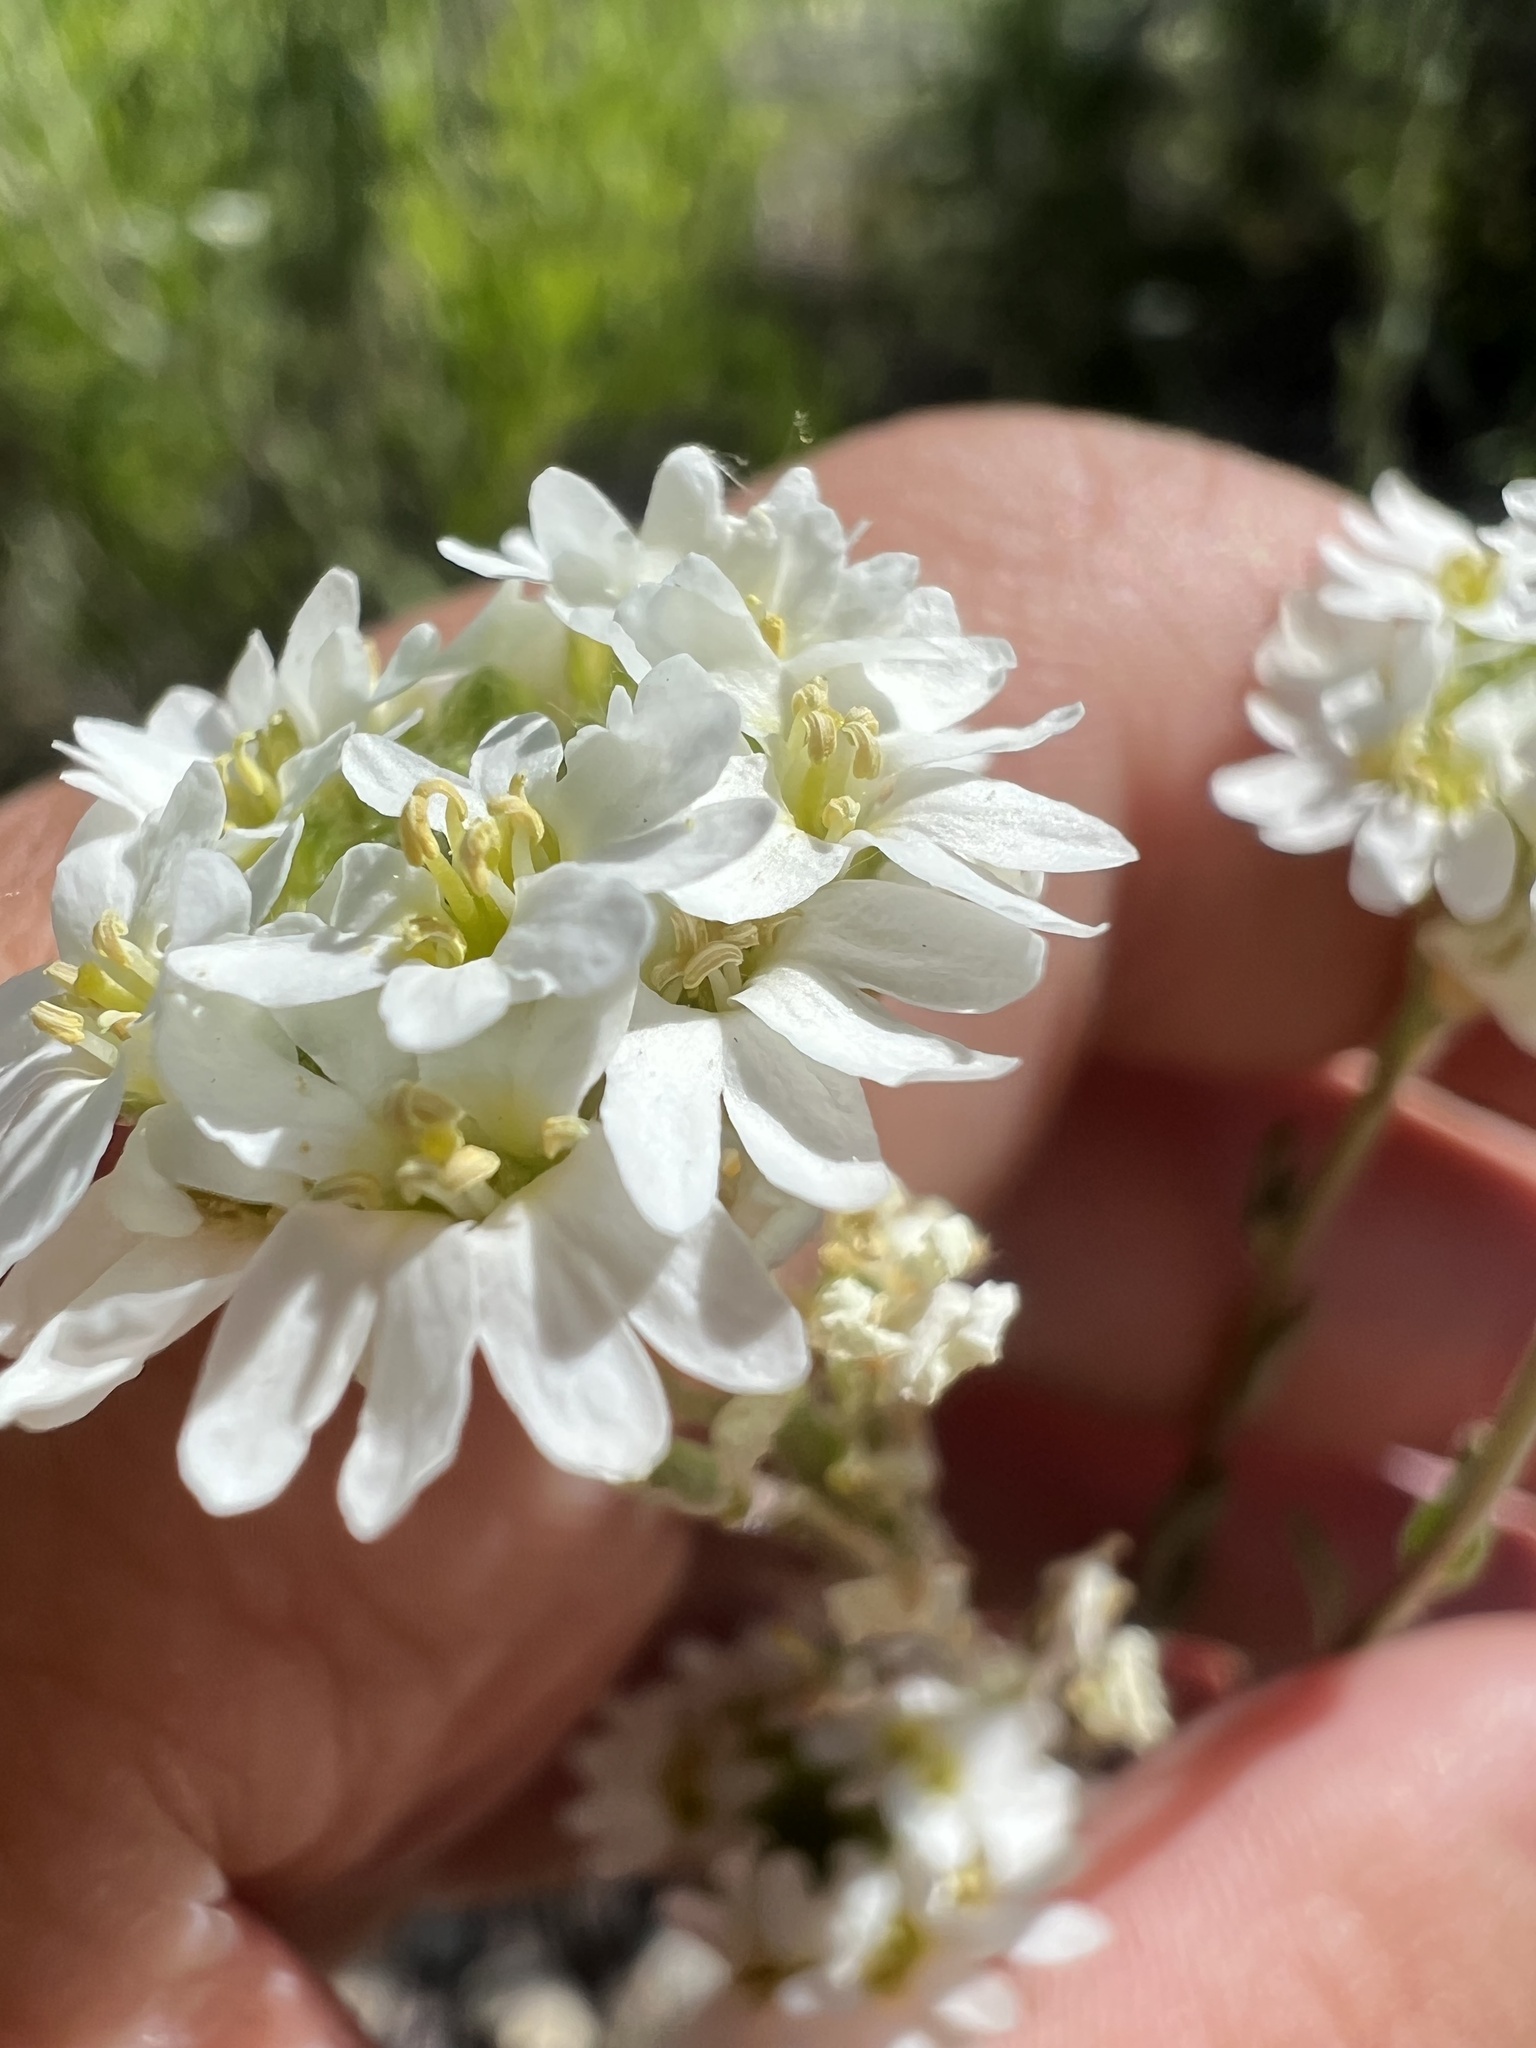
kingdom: Plantae
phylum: Tracheophyta
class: Magnoliopsida
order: Brassicales
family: Brassicaceae
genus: Berteroa
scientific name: Berteroa incana
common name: Hoary alison
